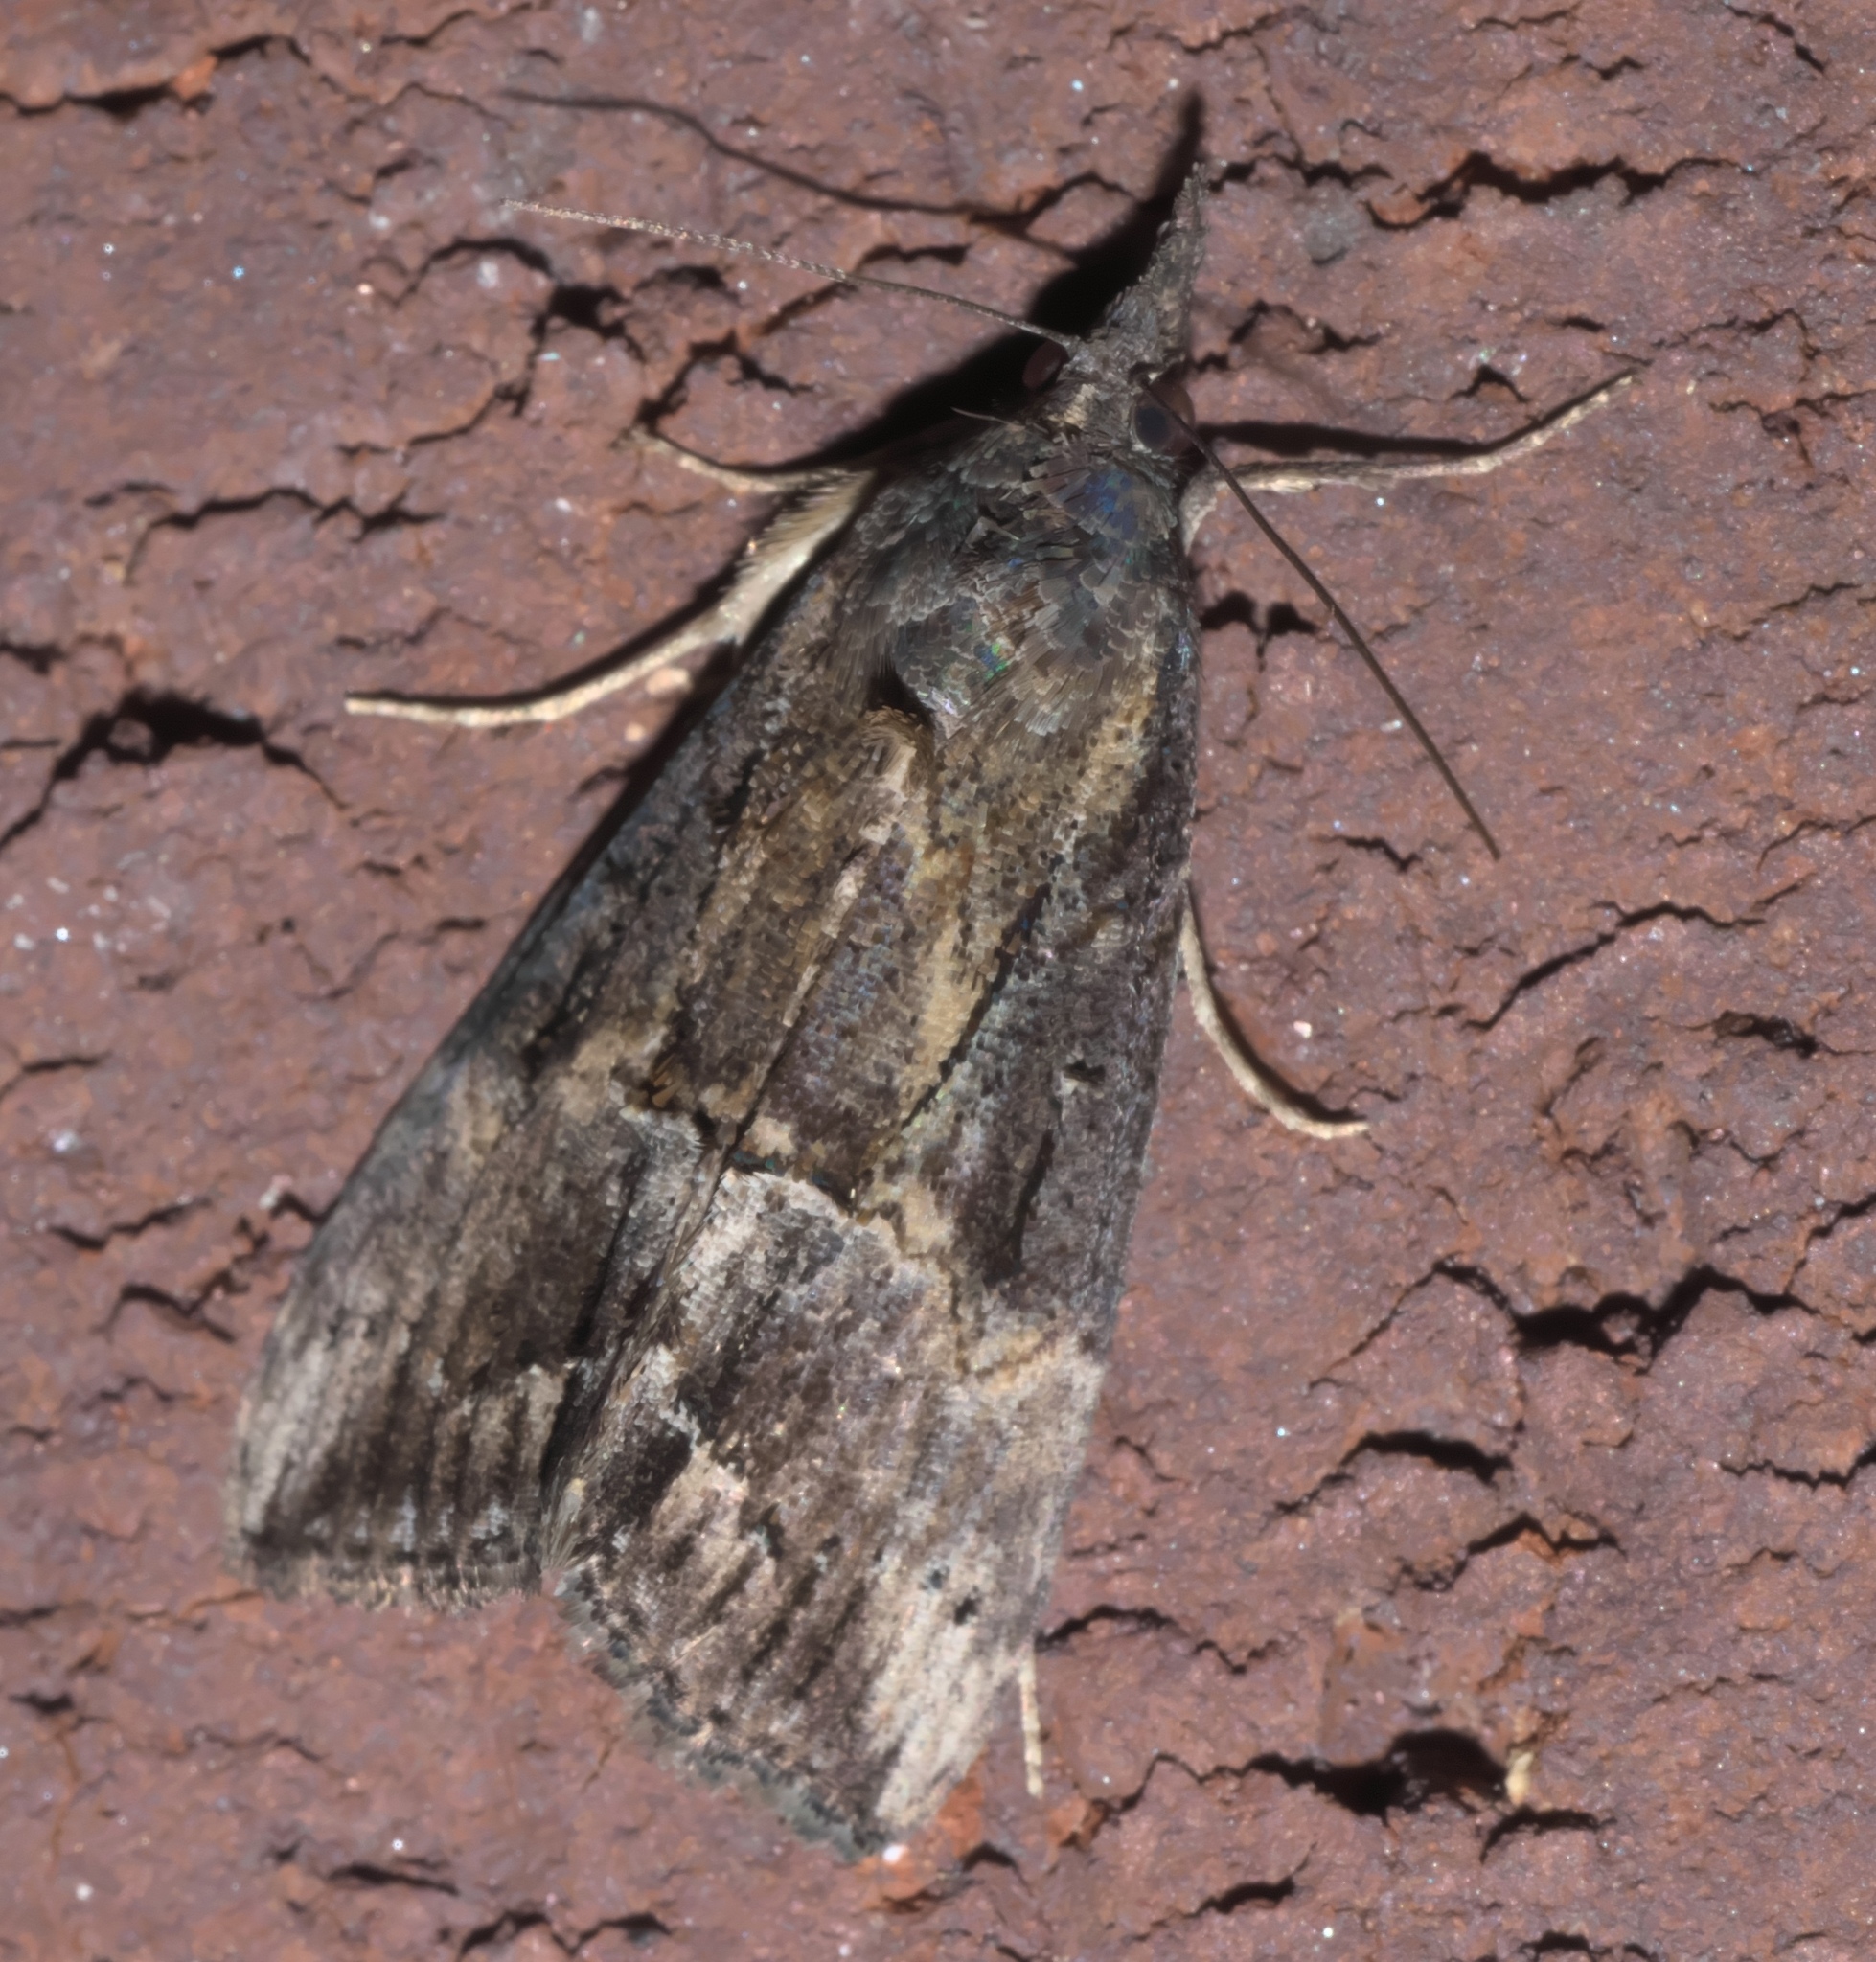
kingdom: Animalia
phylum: Arthropoda
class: Insecta
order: Lepidoptera
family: Erebidae
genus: Hypena
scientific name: Hypena scabra
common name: Green cloverworm
